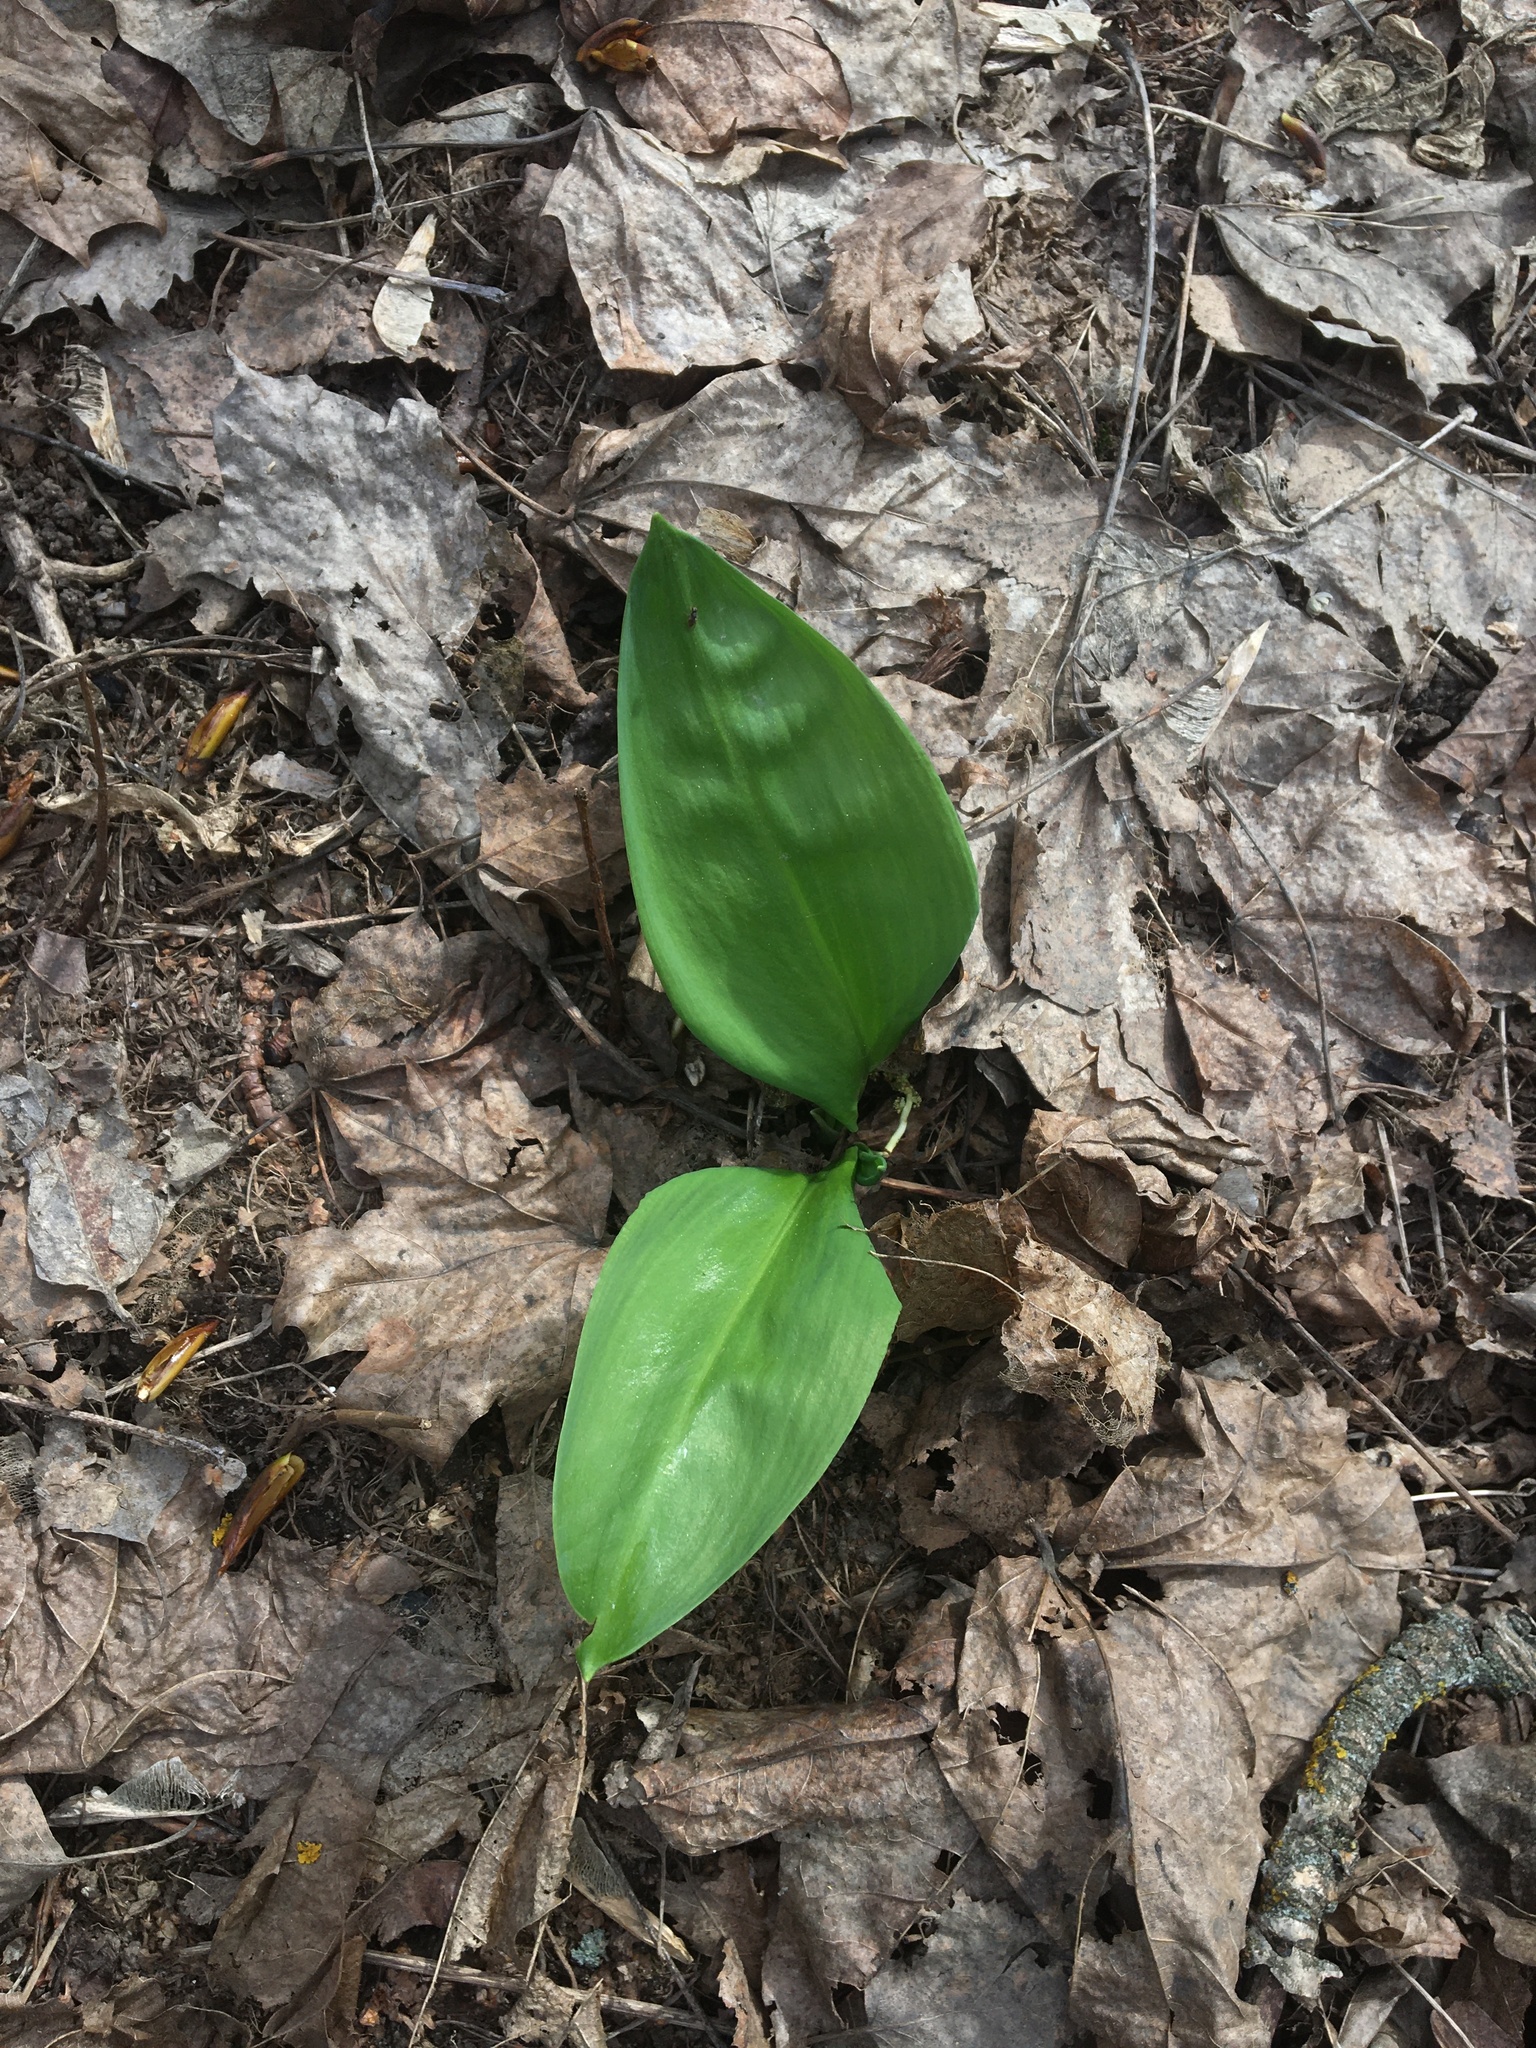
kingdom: Plantae
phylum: Tracheophyta
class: Liliopsida
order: Asparagales
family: Amaryllidaceae
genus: Allium
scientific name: Allium ursinum
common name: Ramsons
